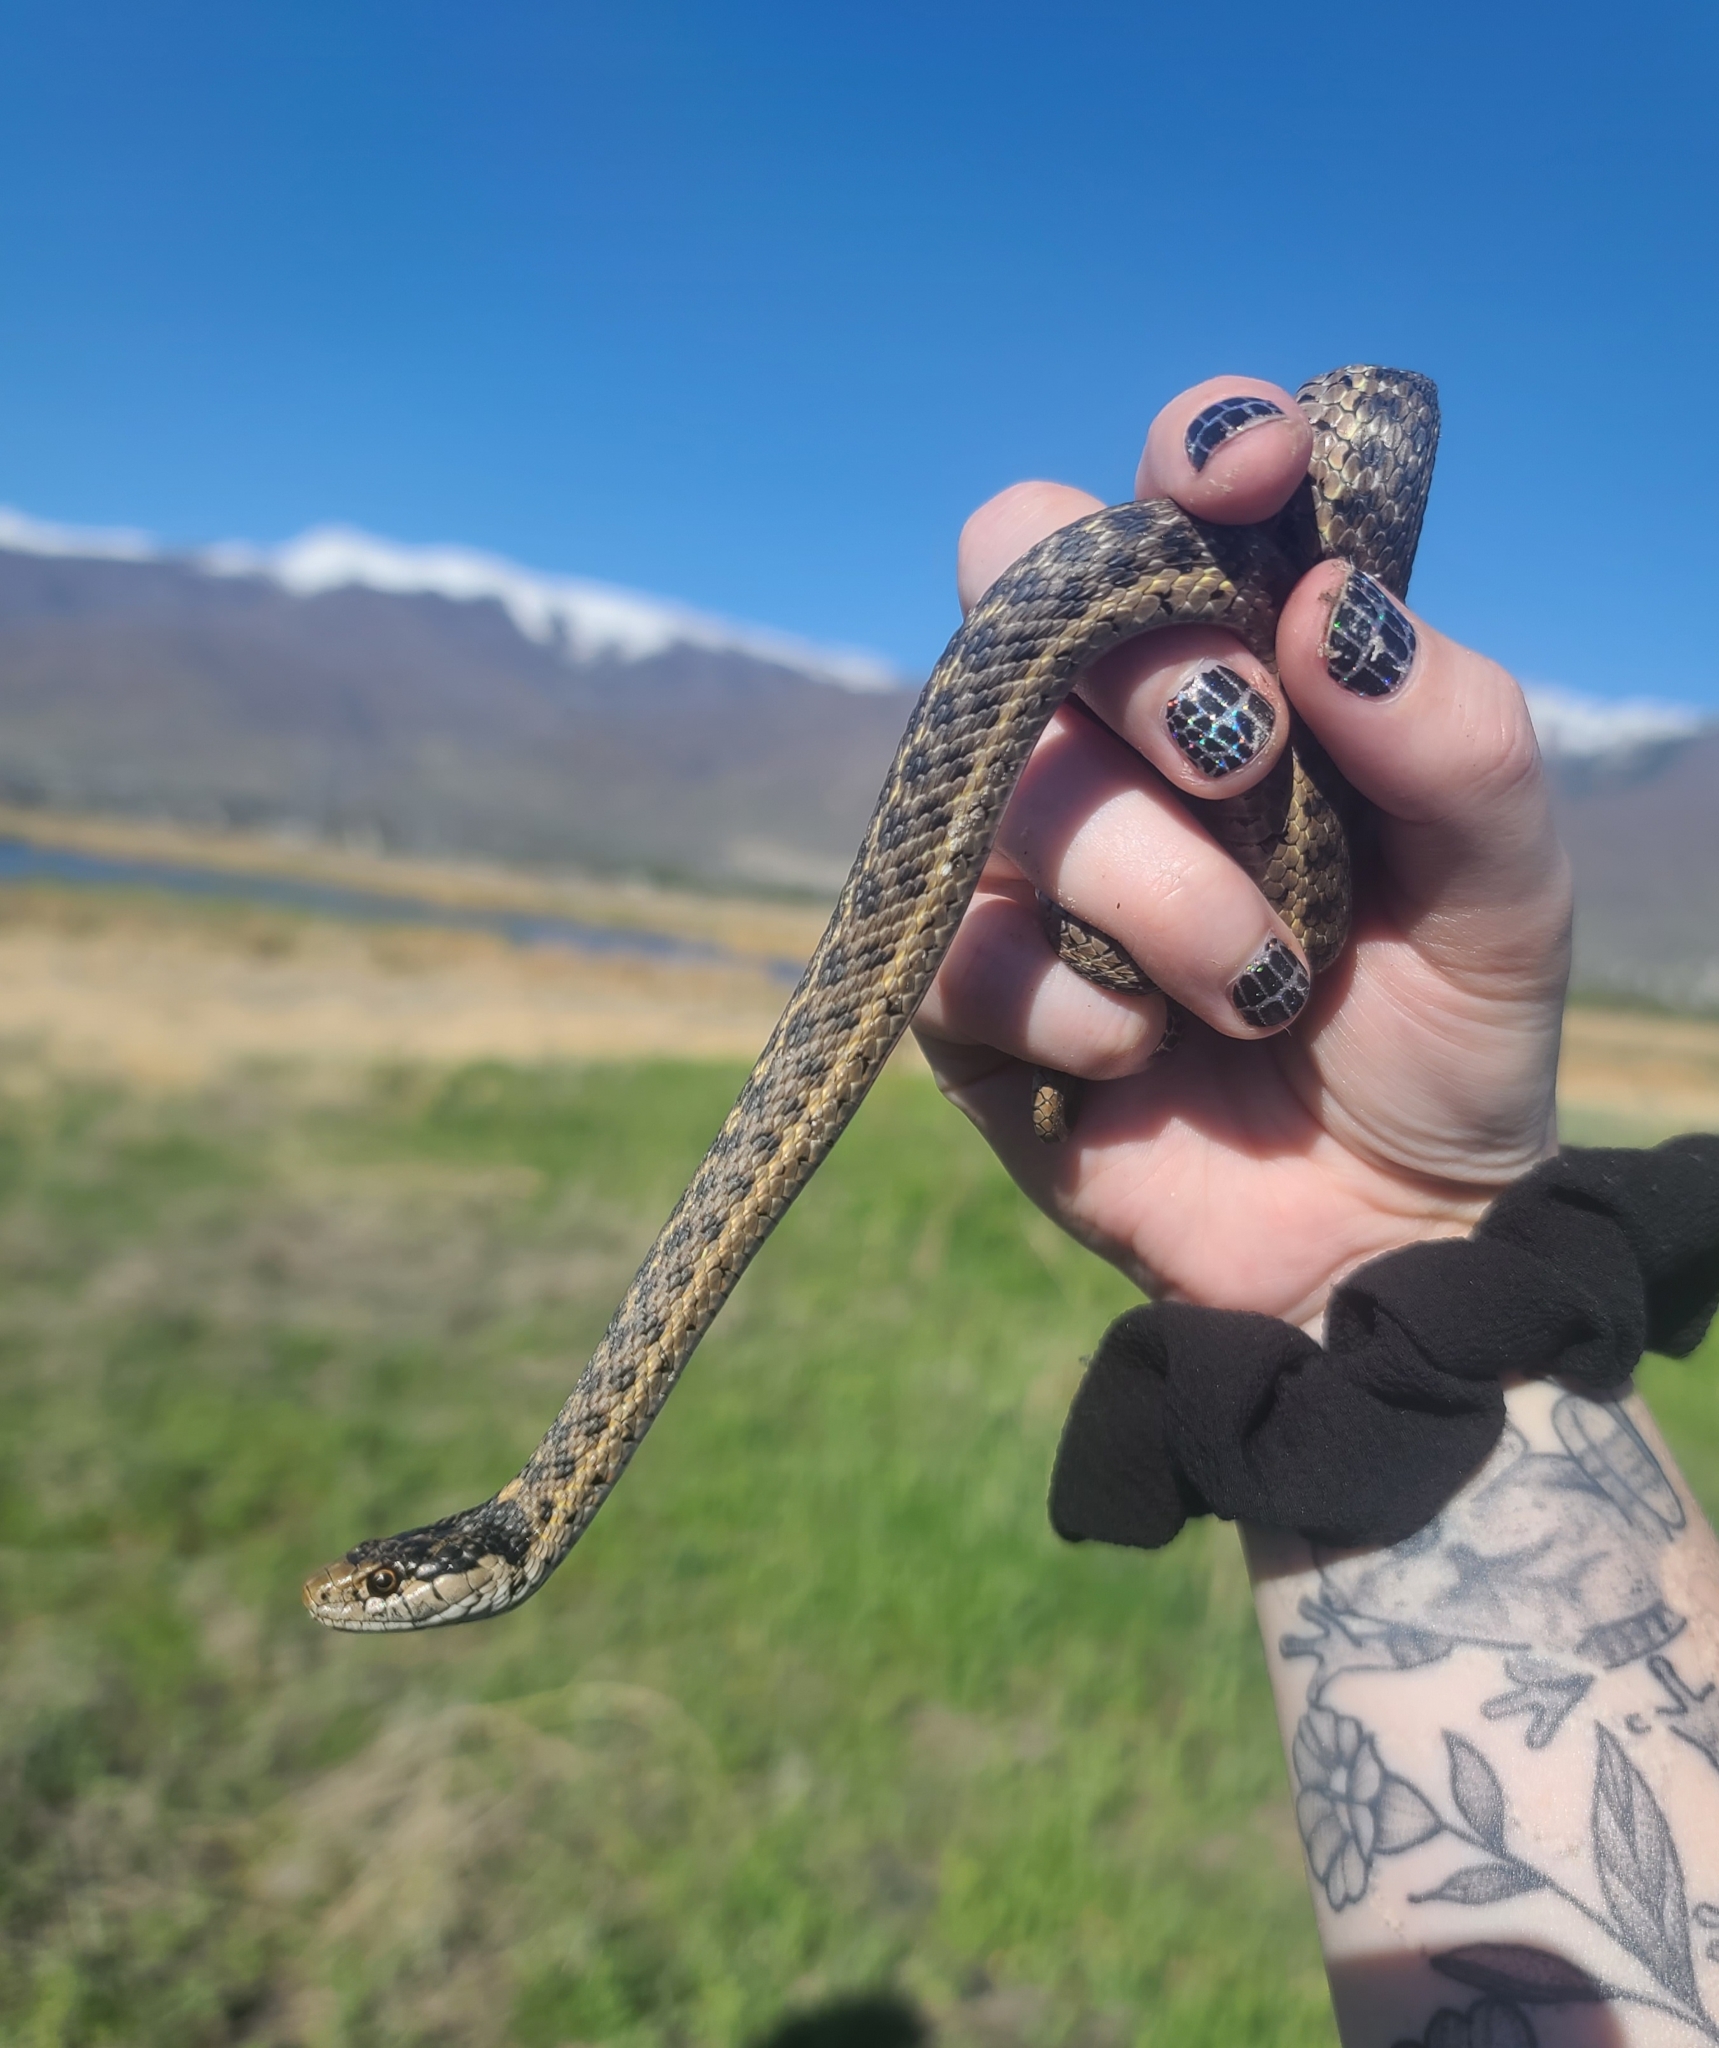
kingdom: Animalia
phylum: Chordata
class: Squamata
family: Colubridae
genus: Thamnophis
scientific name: Thamnophis elegans
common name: Western terrestrial garter snake
